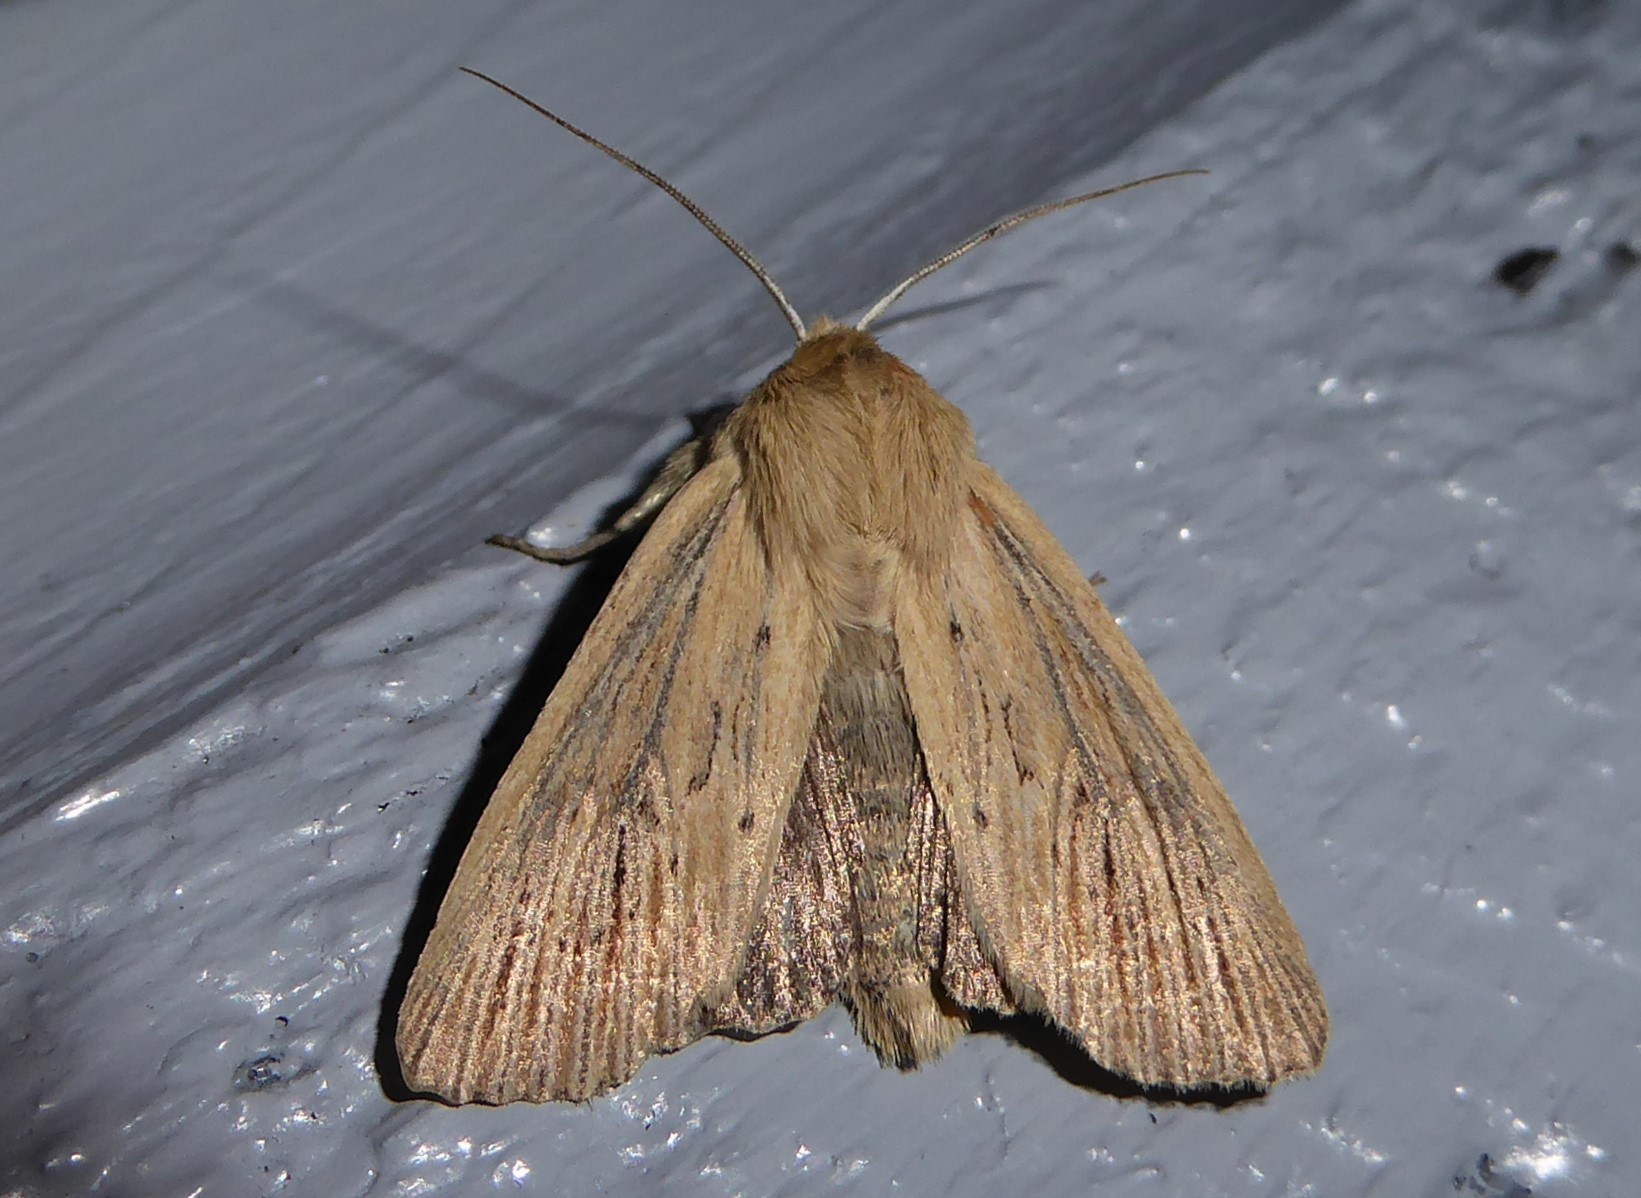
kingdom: Animalia
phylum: Arthropoda
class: Insecta
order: Lepidoptera
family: Noctuidae
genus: Ichneutica
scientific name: Ichneutica arotis
